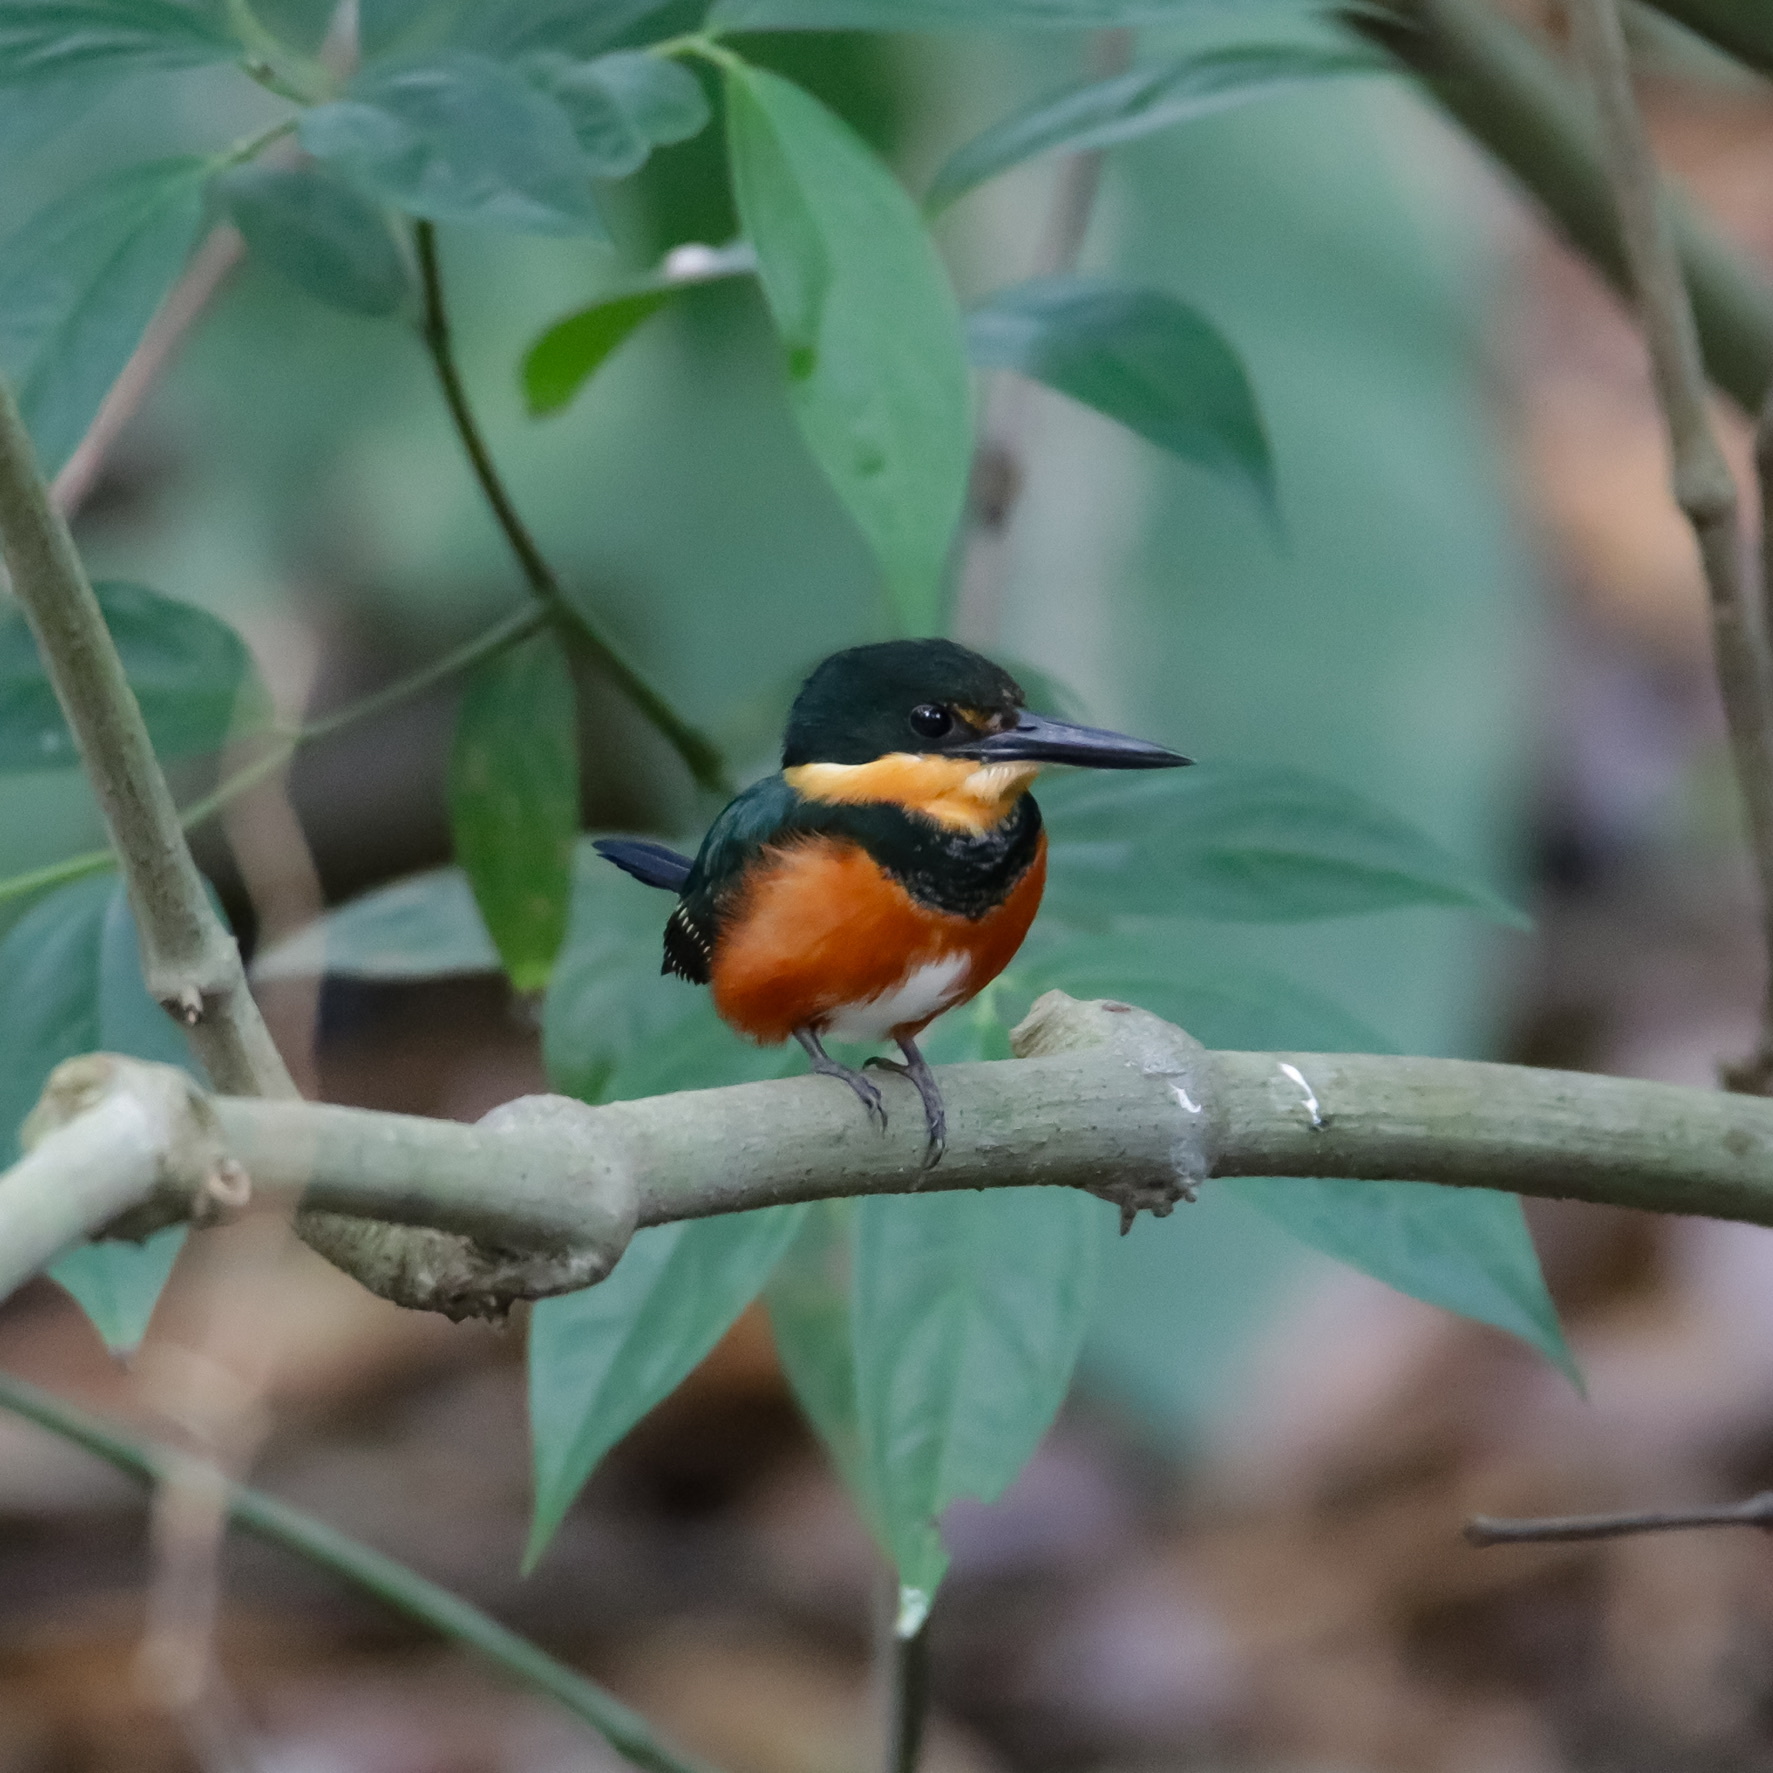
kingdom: Animalia
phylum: Chordata
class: Aves
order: Coraciiformes
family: Alcedinidae
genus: Chloroceryle
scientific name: Chloroceryle aenea
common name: American pygmy kingfisher
